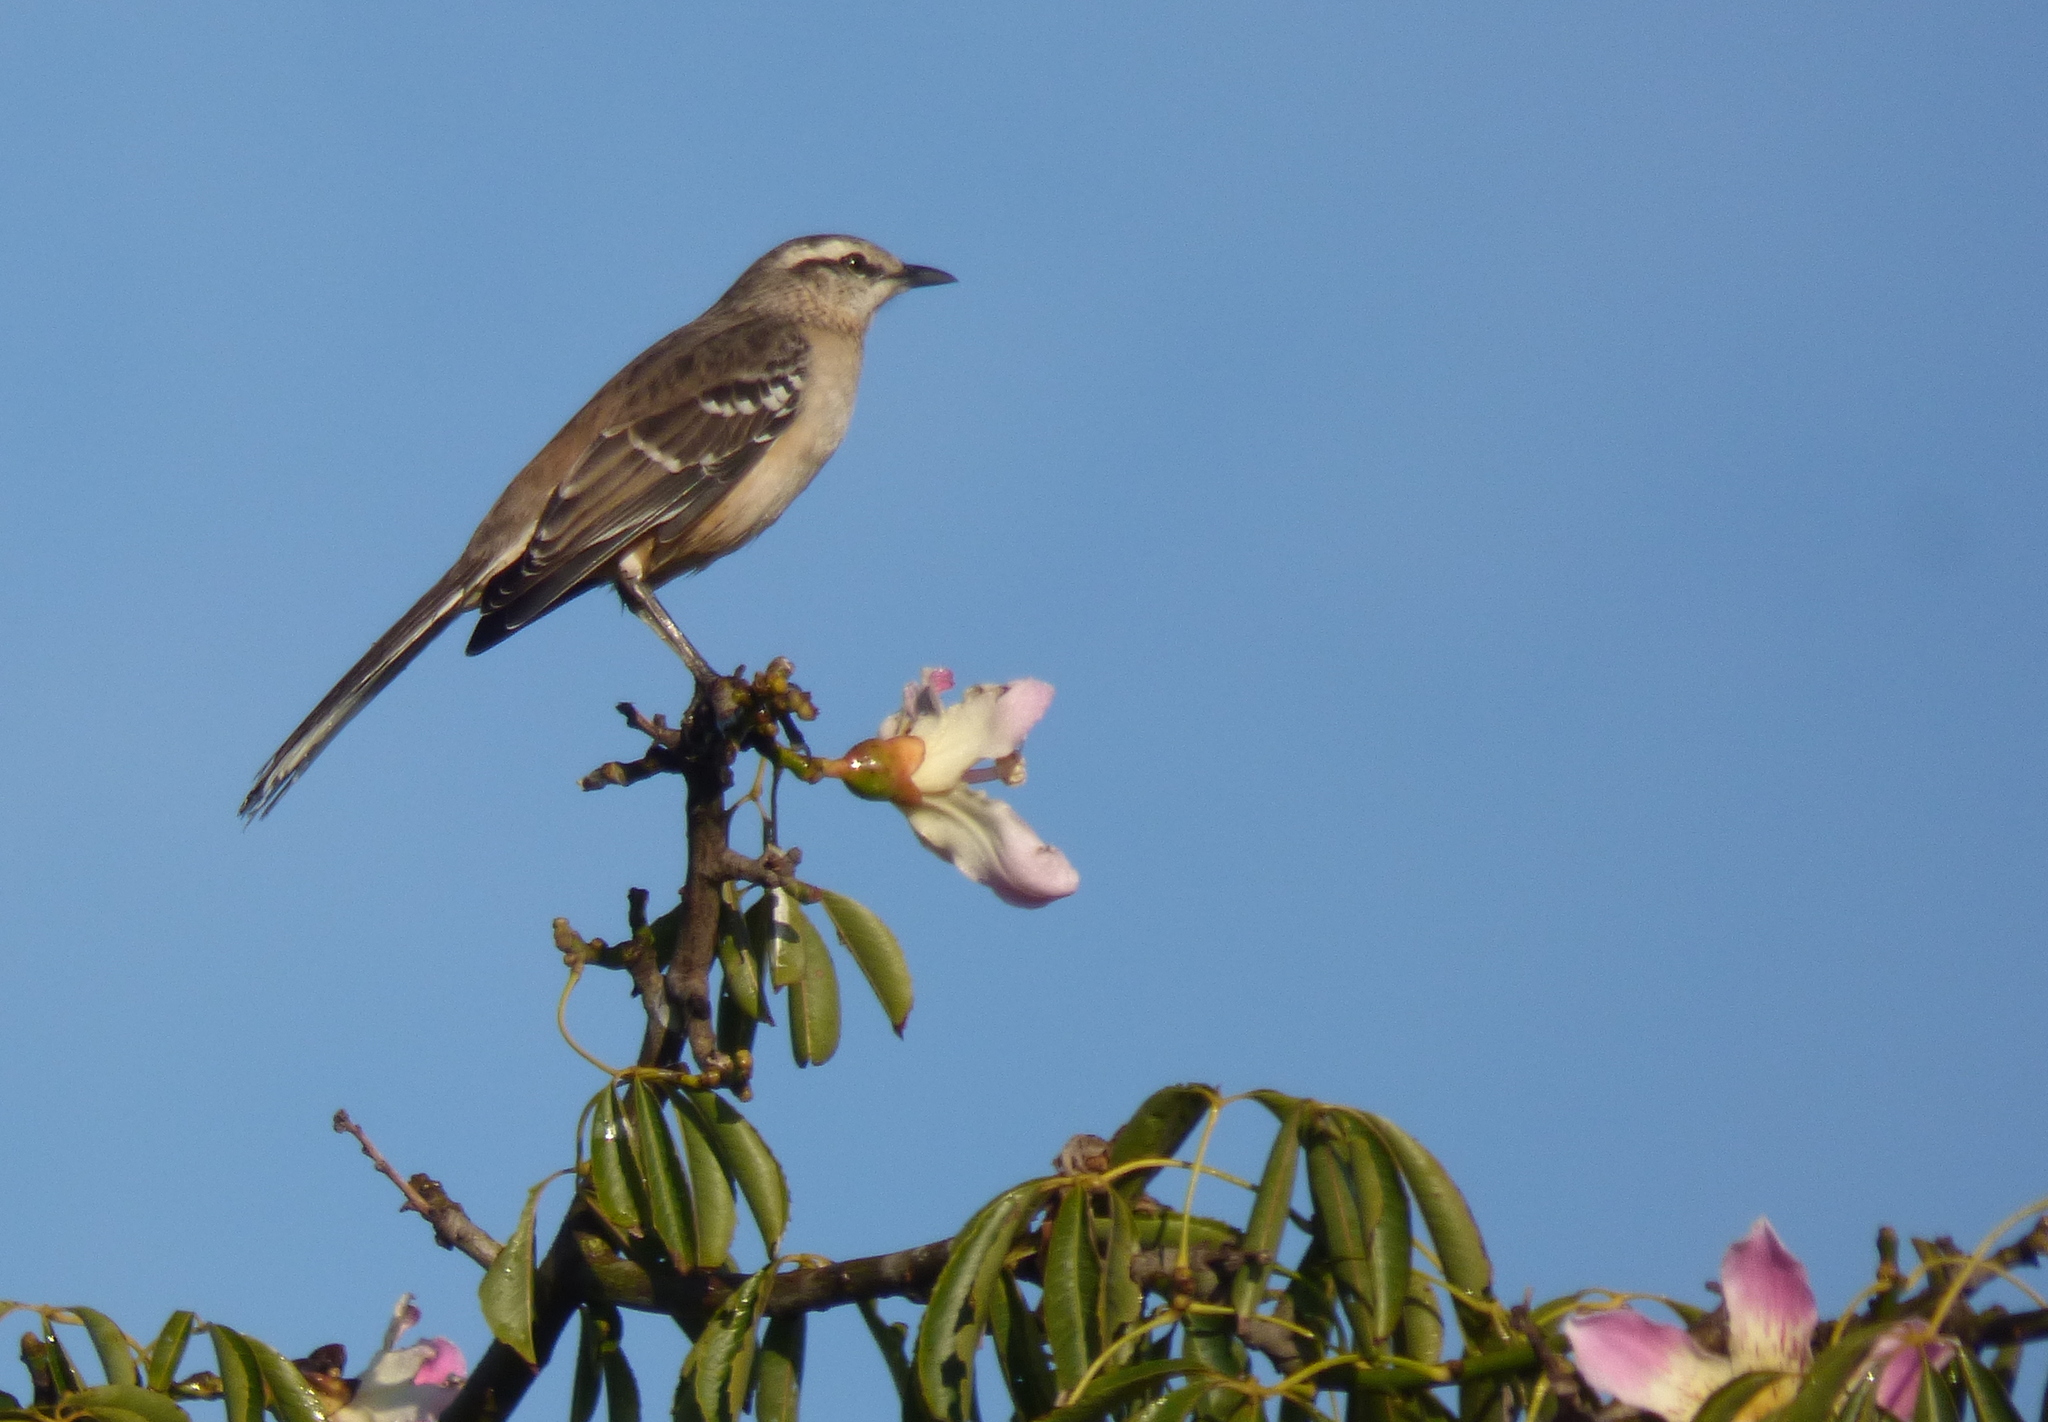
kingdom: Animalia
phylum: Chordata
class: Aves
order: Passeriformes
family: Mimidae
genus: Mimus
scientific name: Mimus saturninus
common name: Chalk-browed mockingbird
